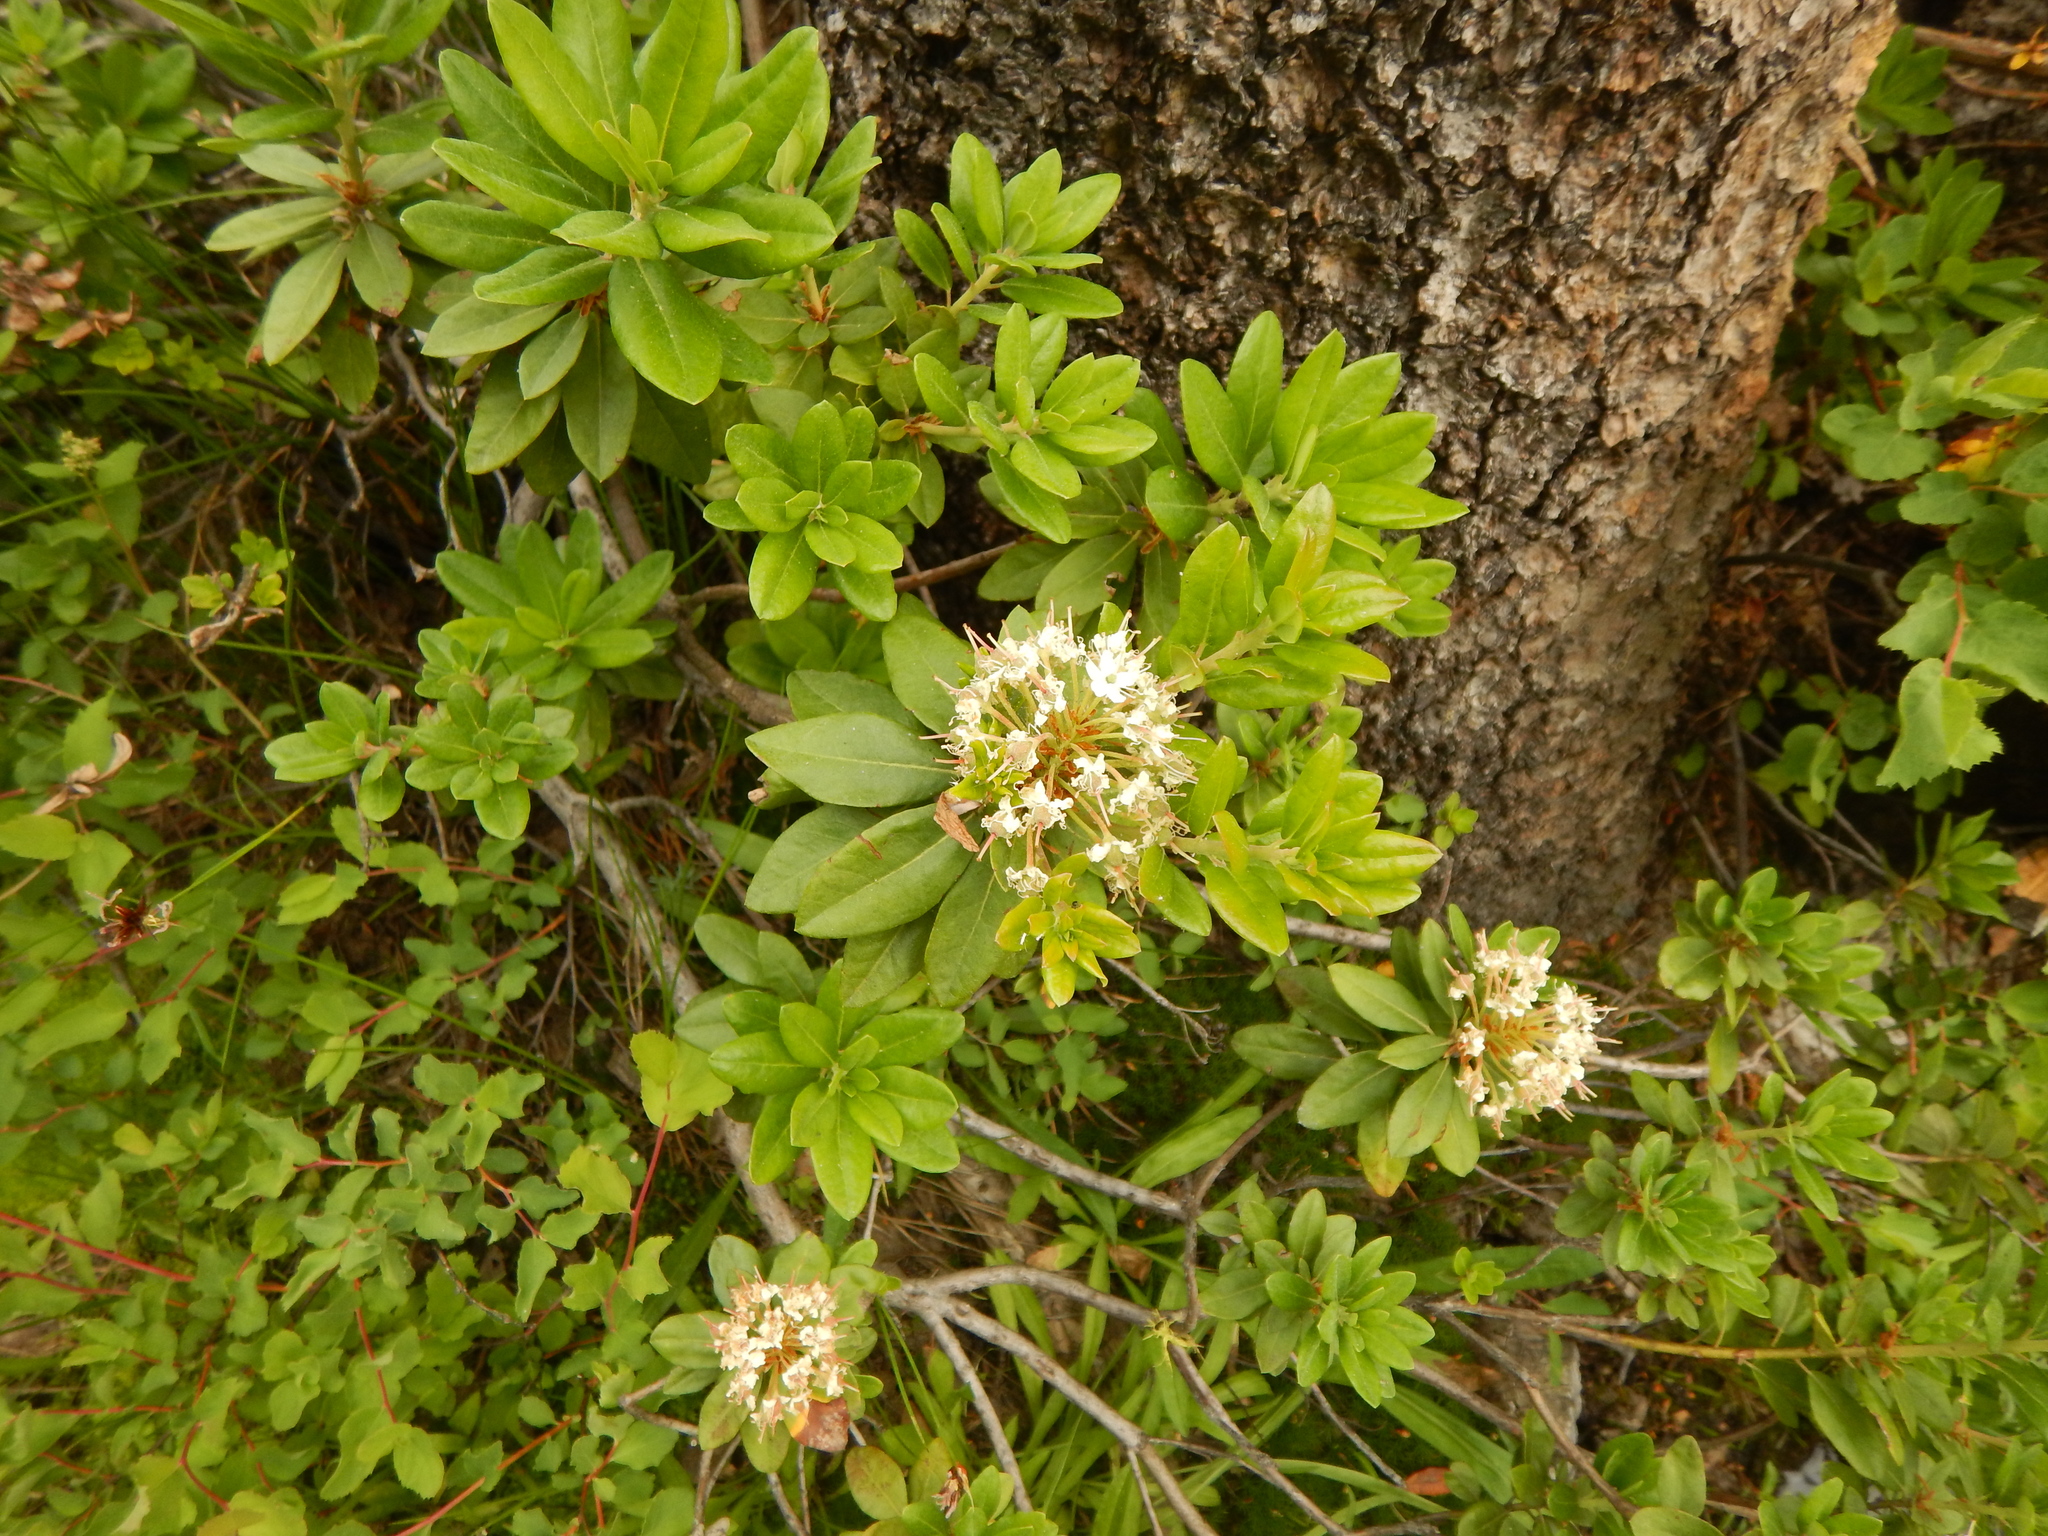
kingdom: Plantae
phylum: Tracheophyta
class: Magnoliopsida
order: Ericales
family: Ericaceae
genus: Rhododendron
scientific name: Rhododendron columbianum
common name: Western labrador tea
